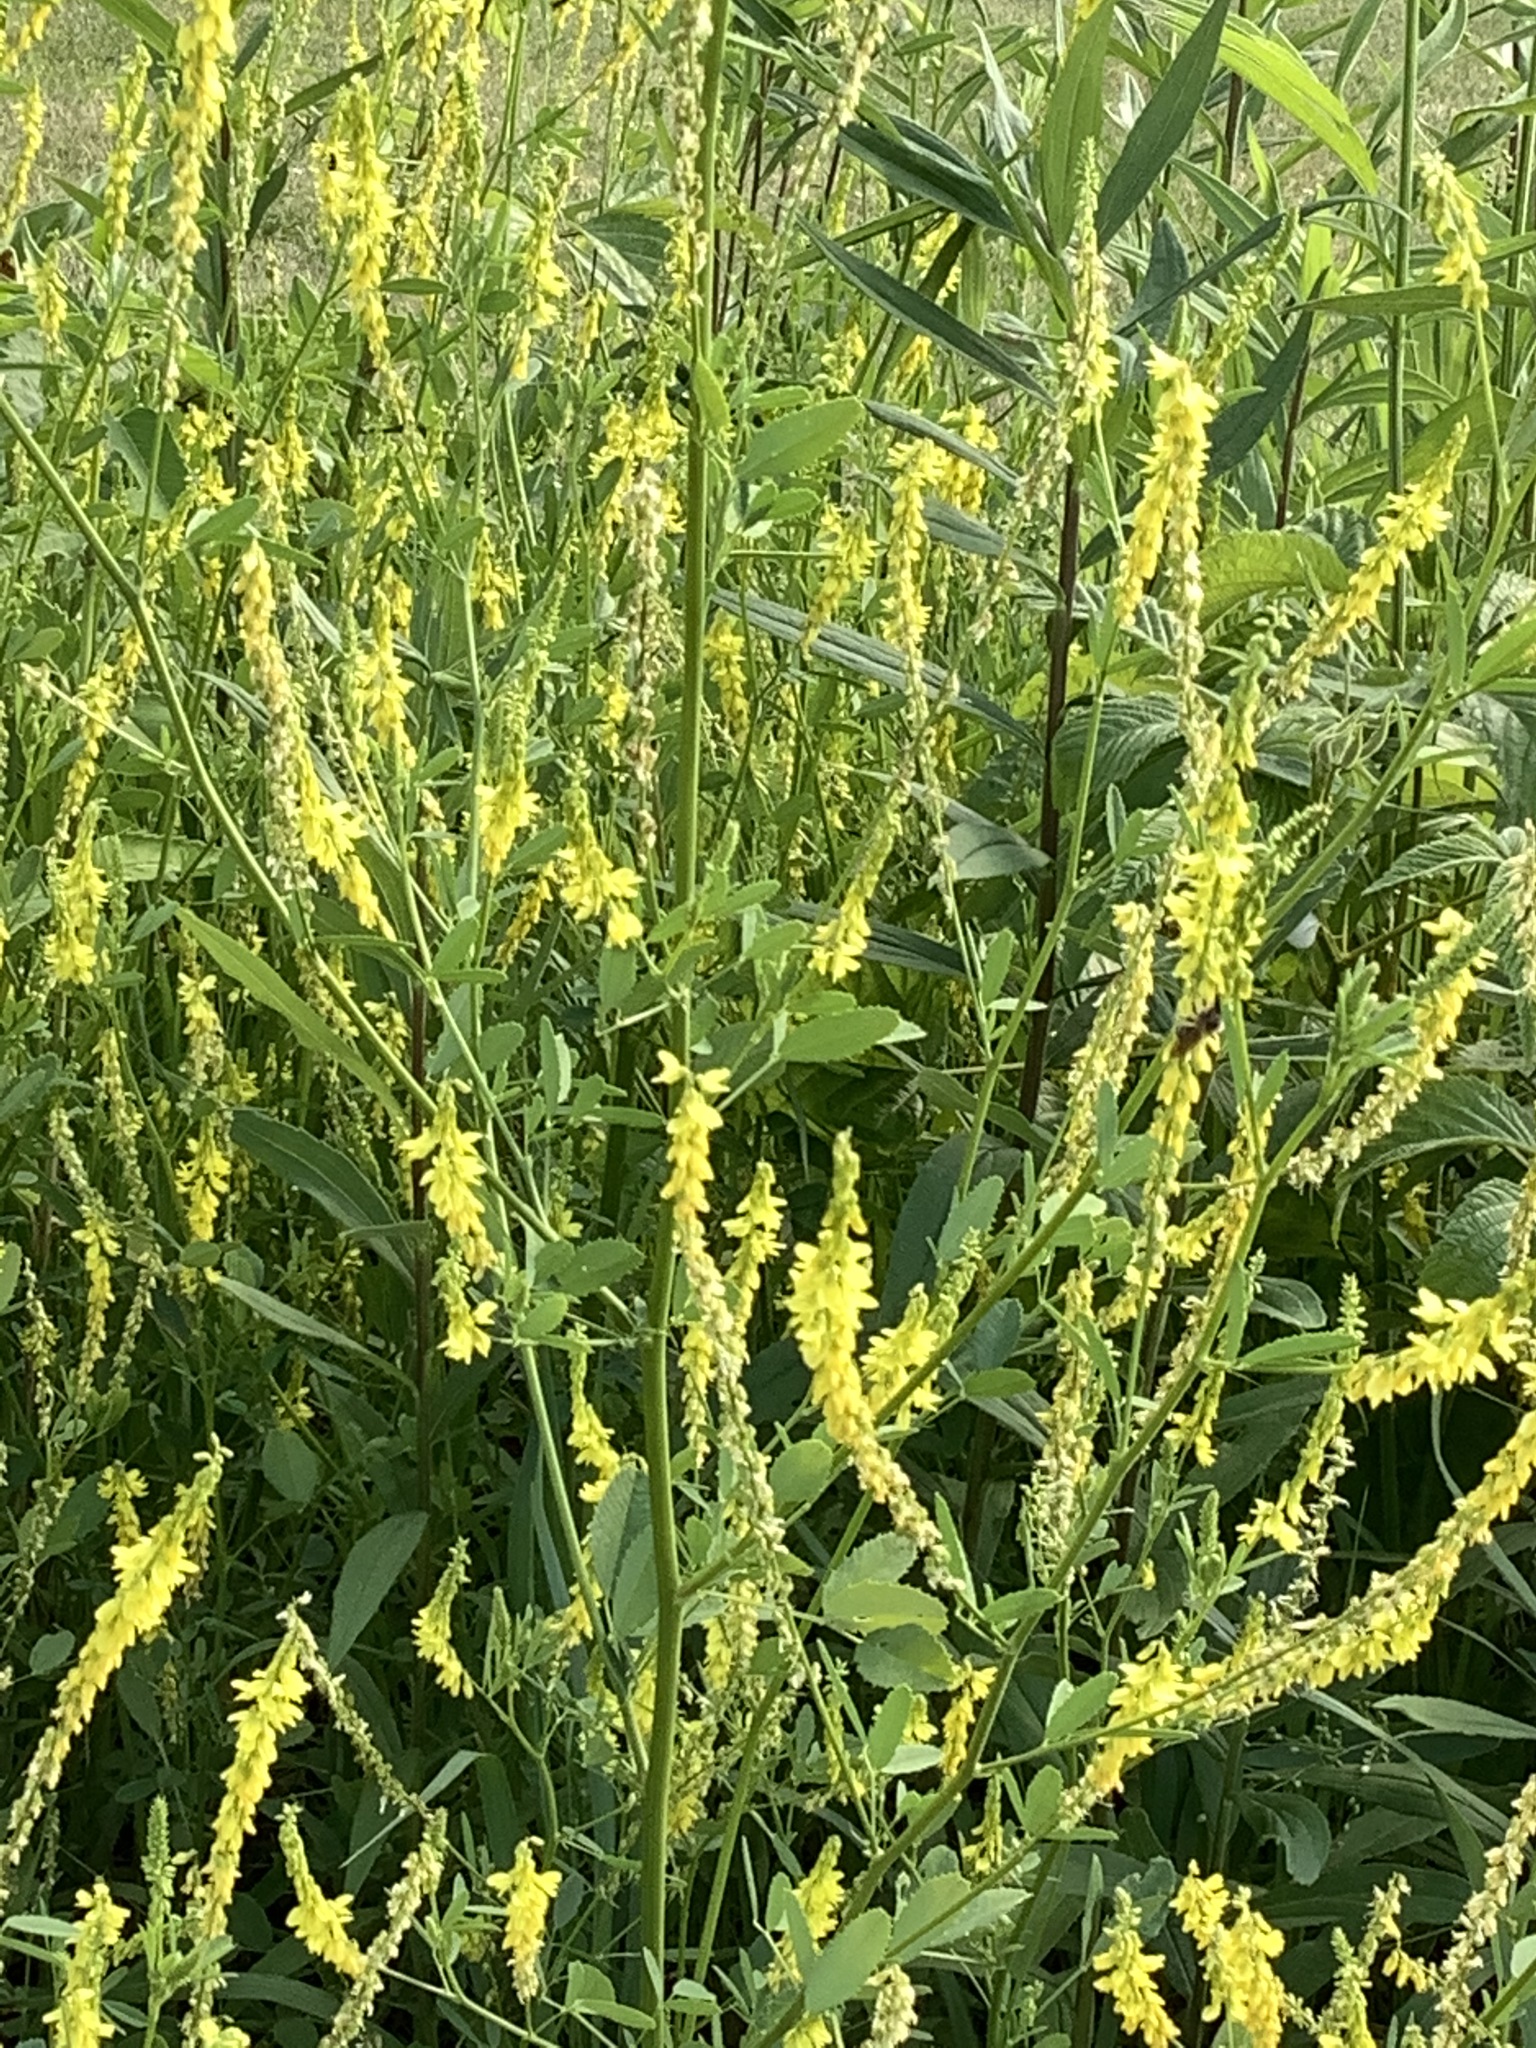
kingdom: Plantae
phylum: Tracheophyta
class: Magnoliopsida
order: Fabales
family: Fabaceae
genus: Melilotus
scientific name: Melilotus officinalis
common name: Sweetclover
